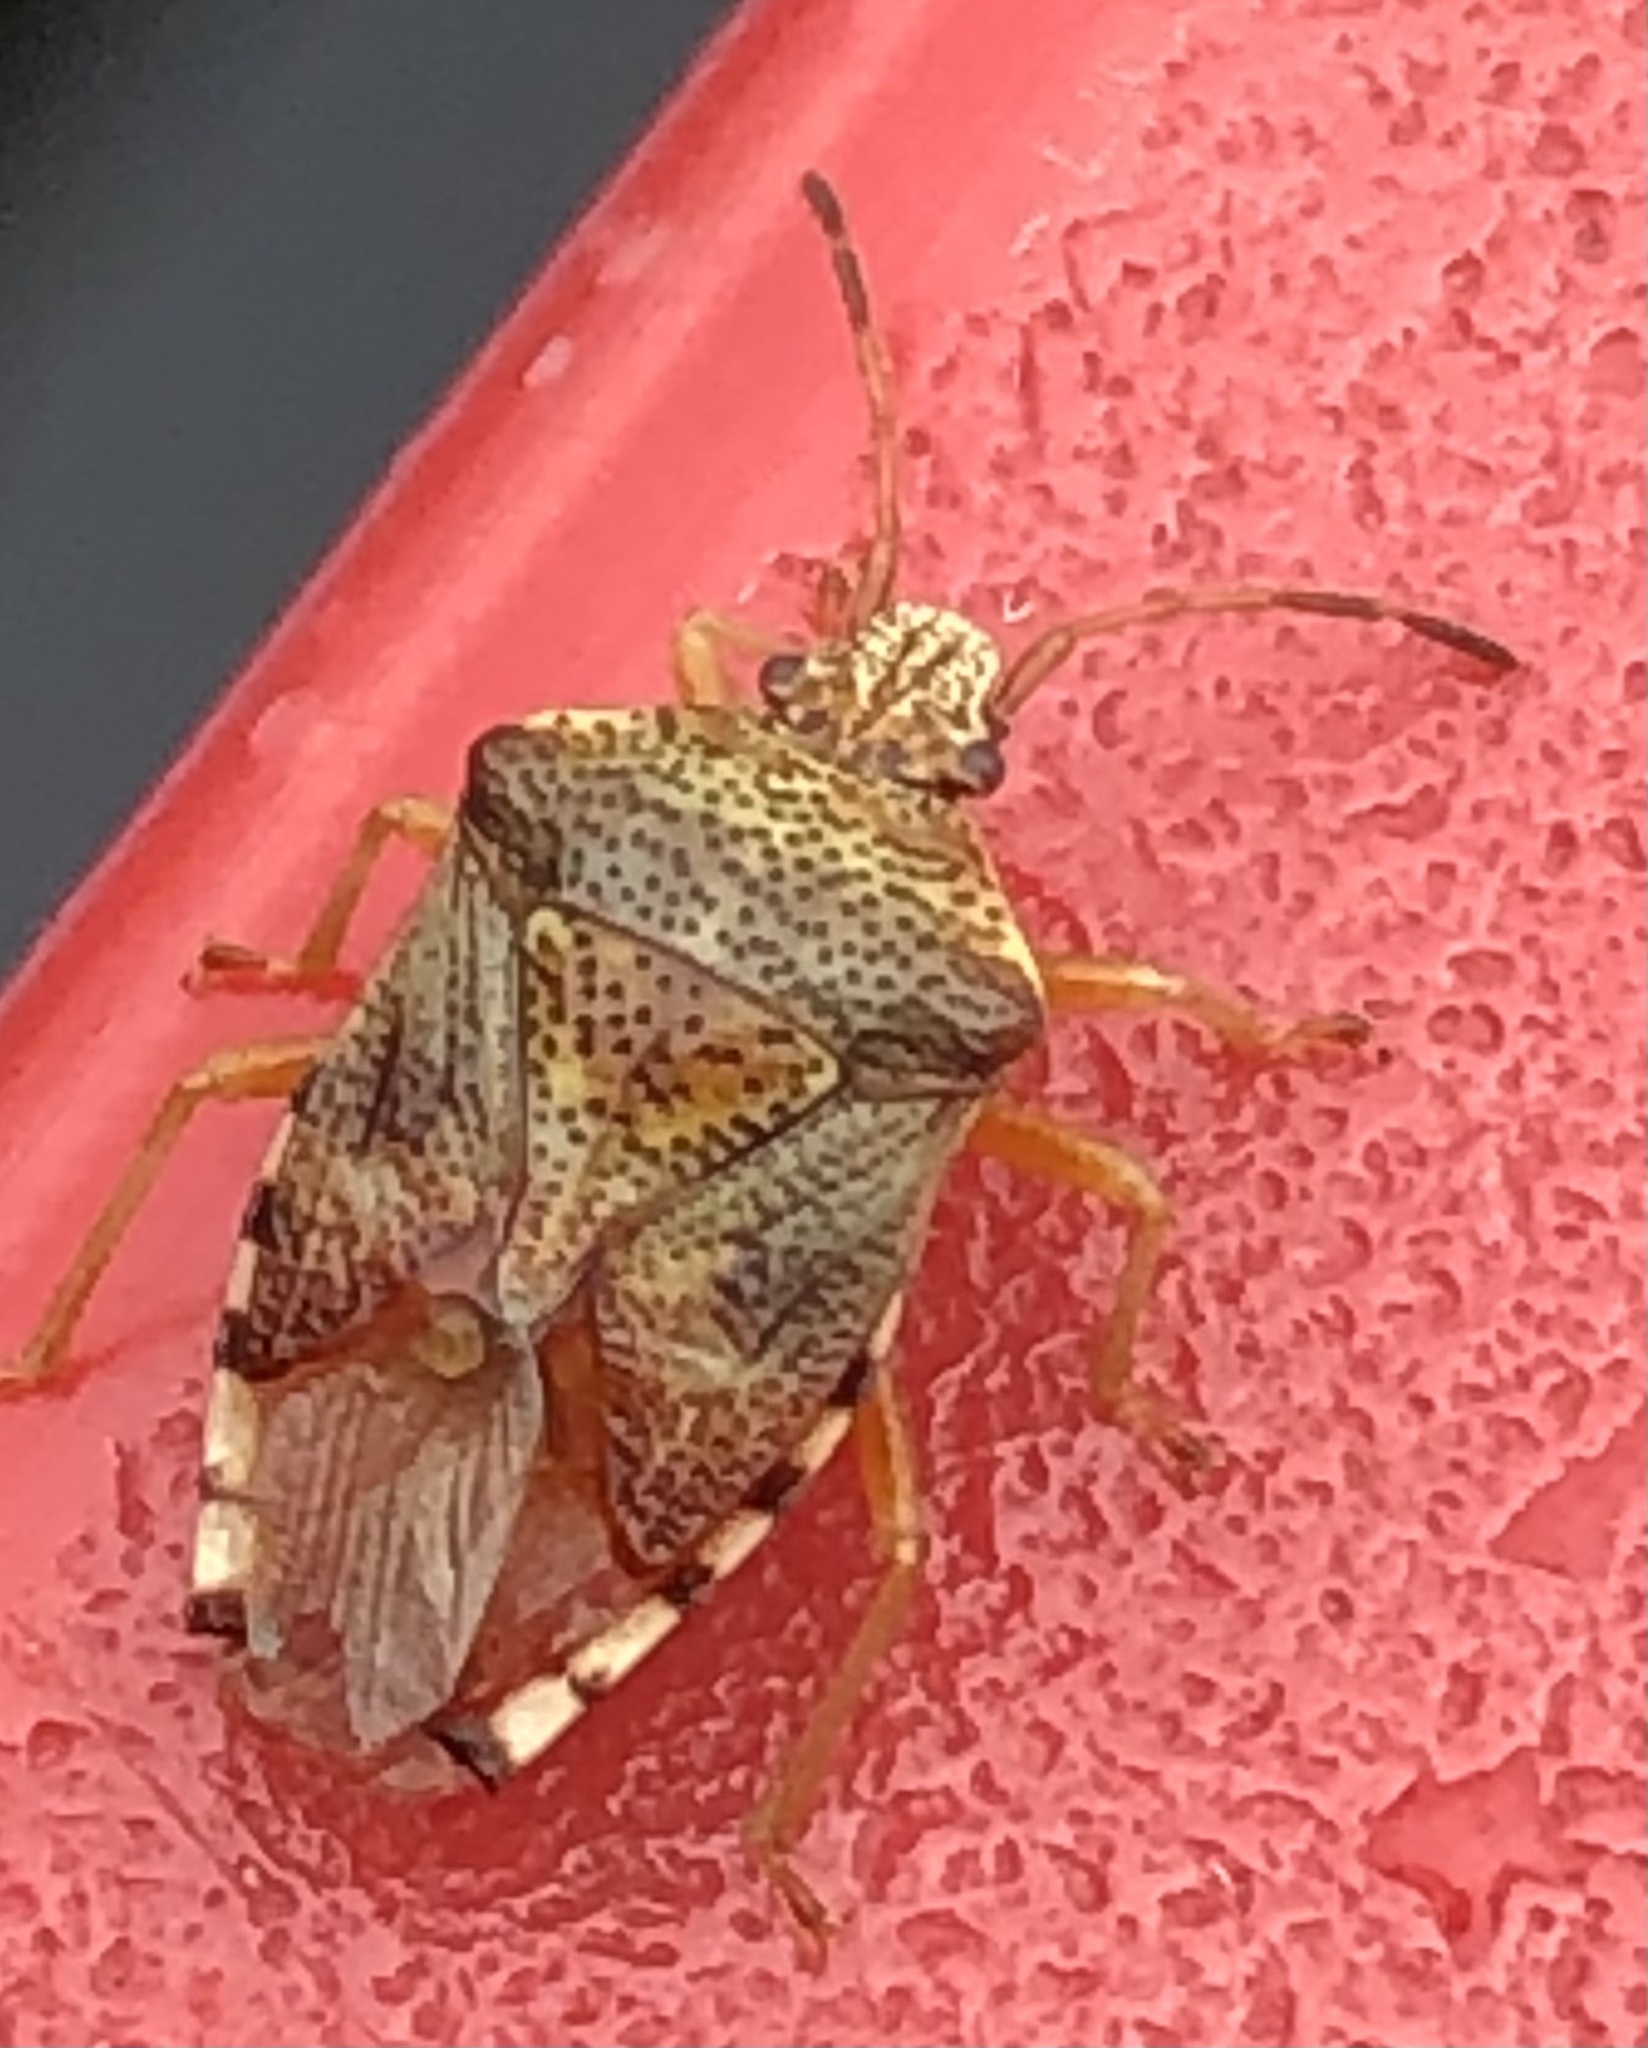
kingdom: Animalia
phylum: Arthropoda
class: Insecta
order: Hemiptera
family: Acanthosomatidae
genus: Elasmucha
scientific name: Elasmucha lateralis
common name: Shield bug
